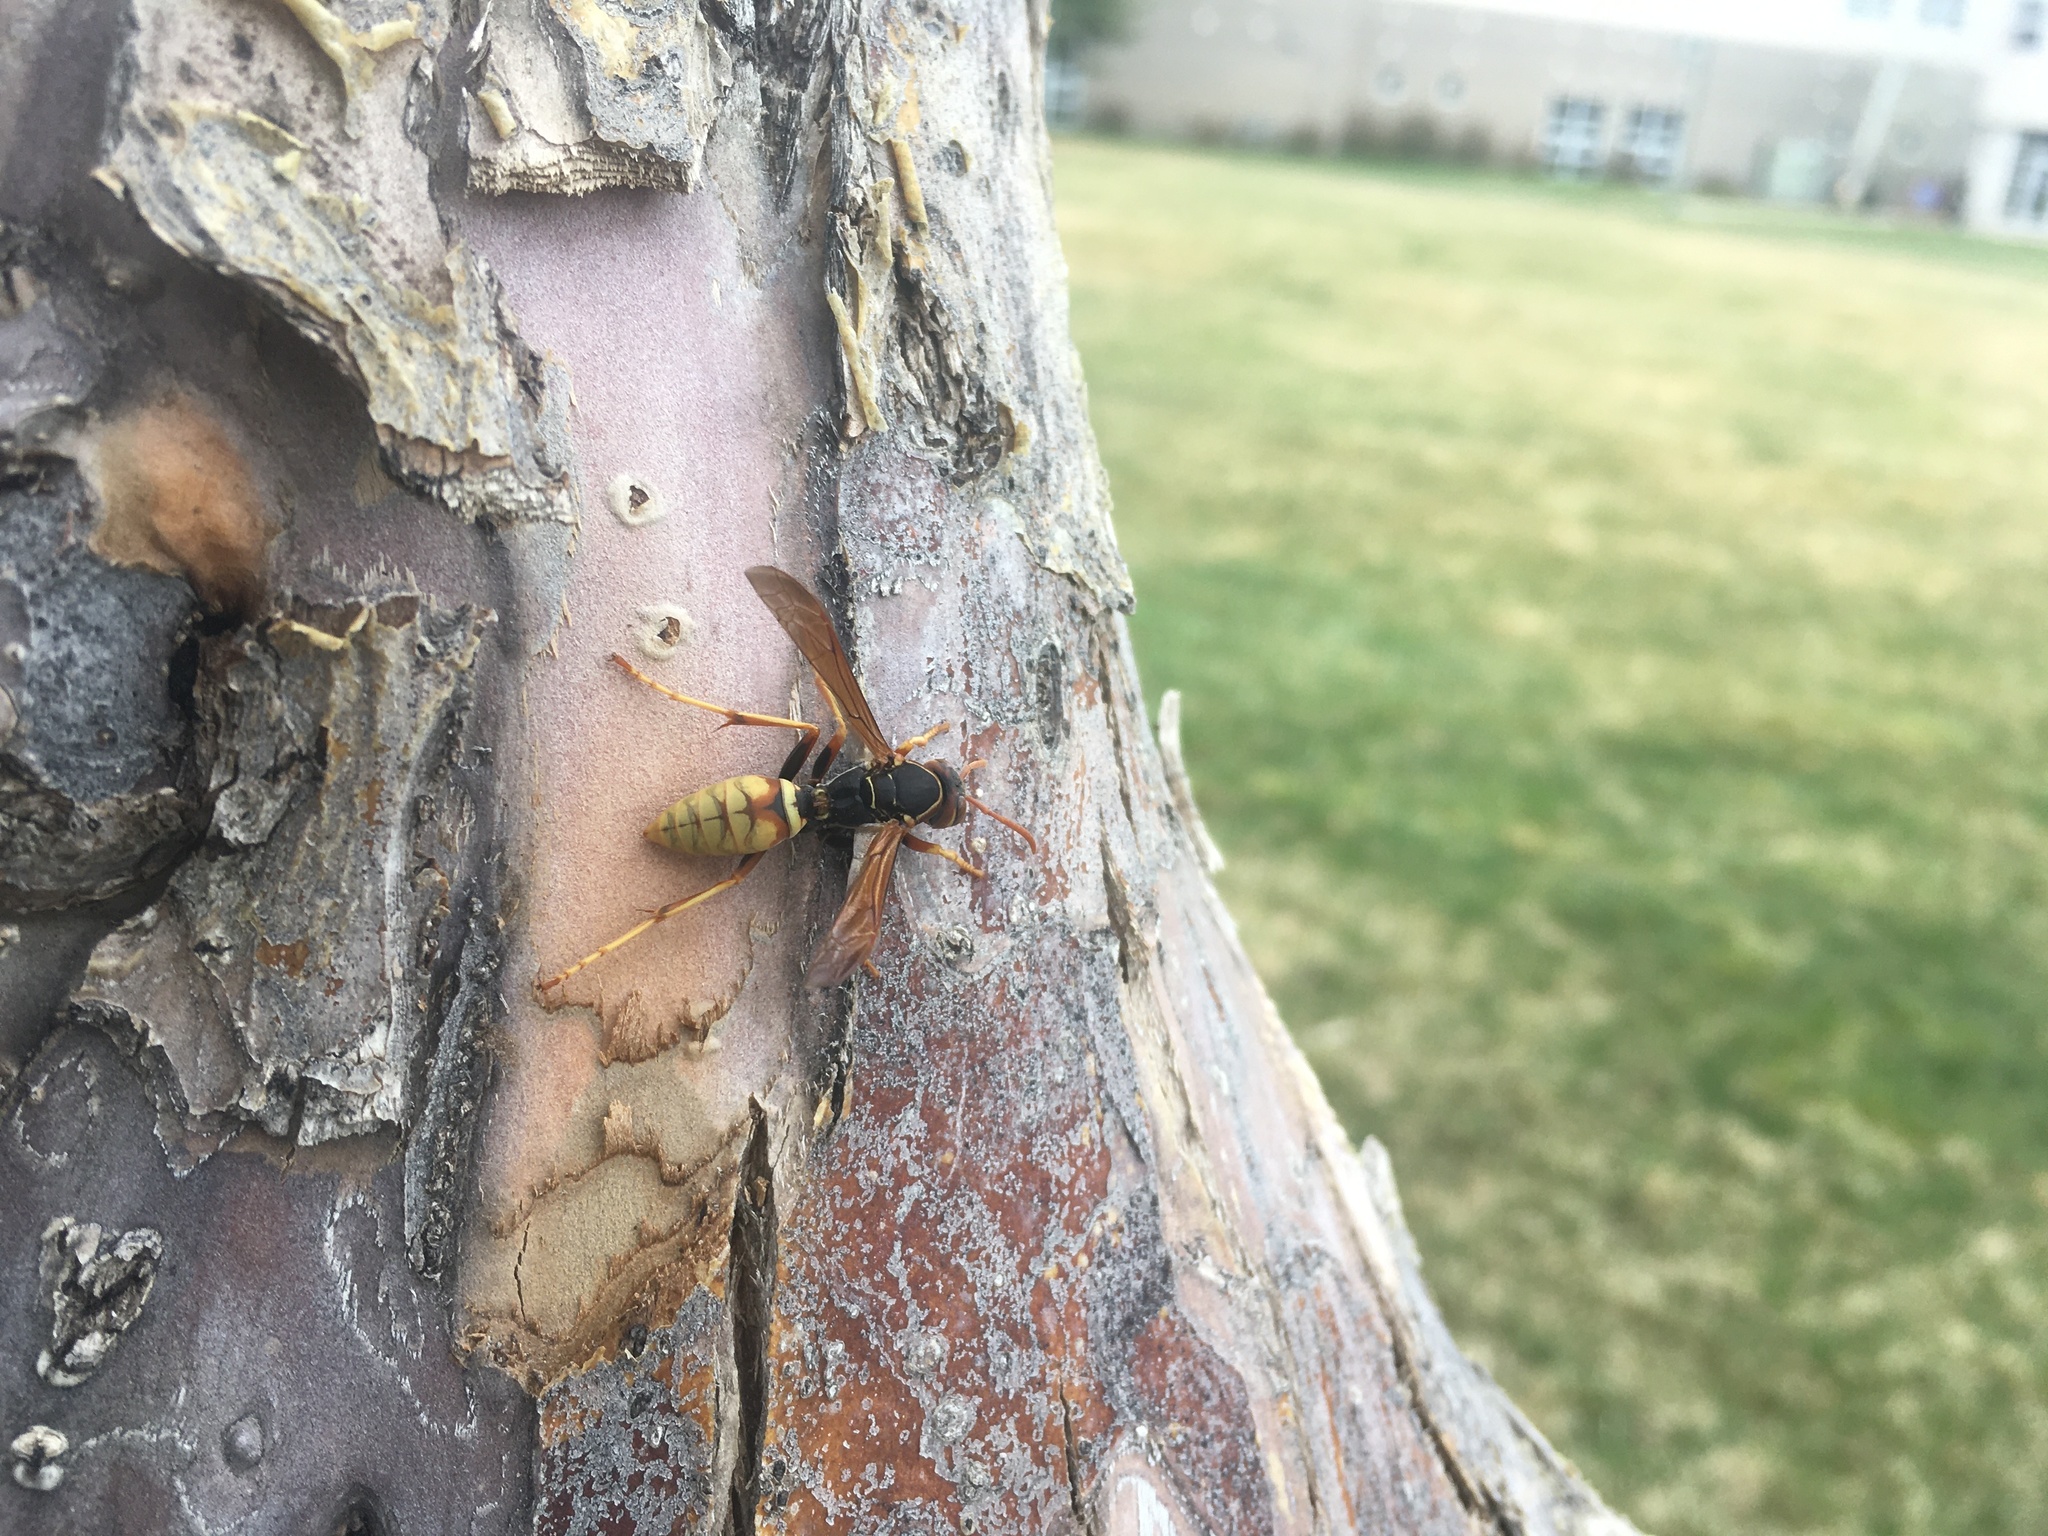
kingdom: Animalia
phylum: Arthropoda
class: Insecta
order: Hymenoptera
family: Eumenidae
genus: Polistes
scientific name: Polistes aurifer
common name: Paper wasp
